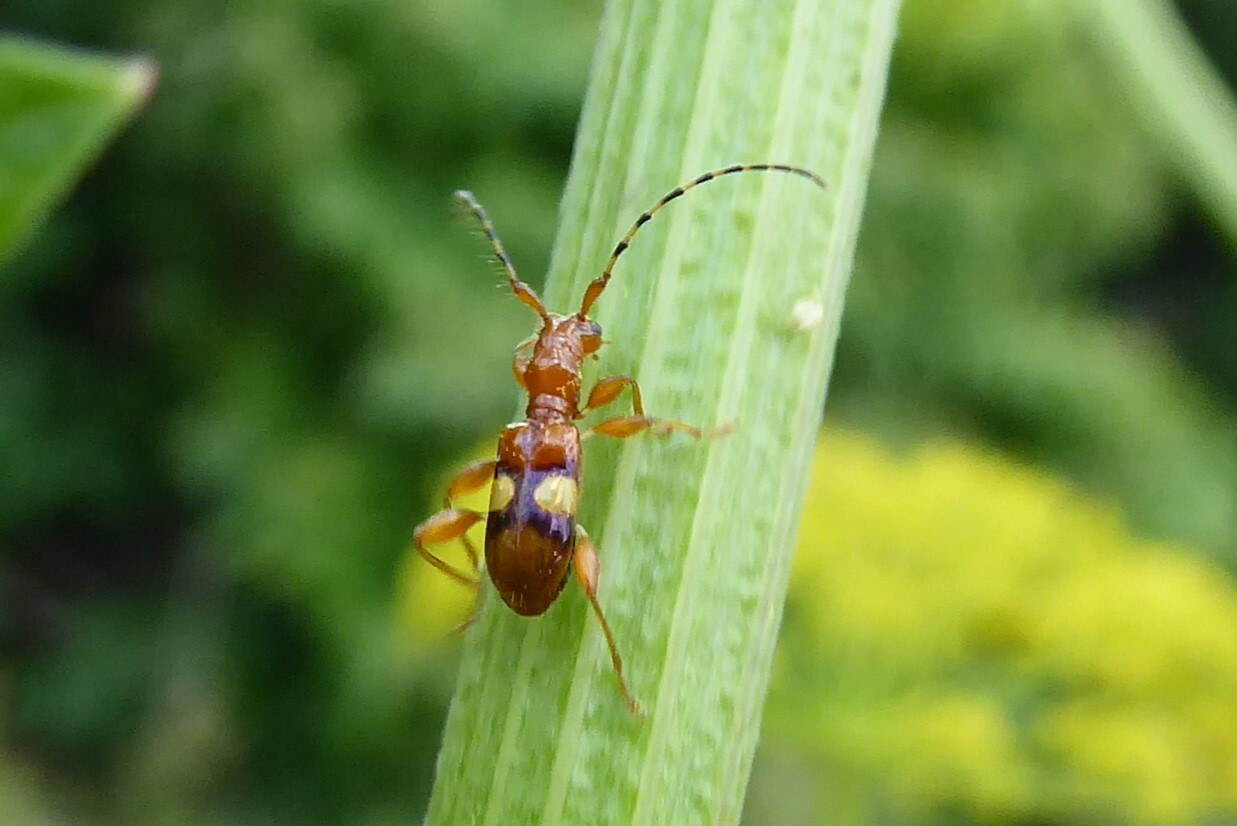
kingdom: Animalia
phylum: Arthropoda
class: Insecta
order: Coleoptera
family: Cerambycidae
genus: Zorion
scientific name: Zorion australe
